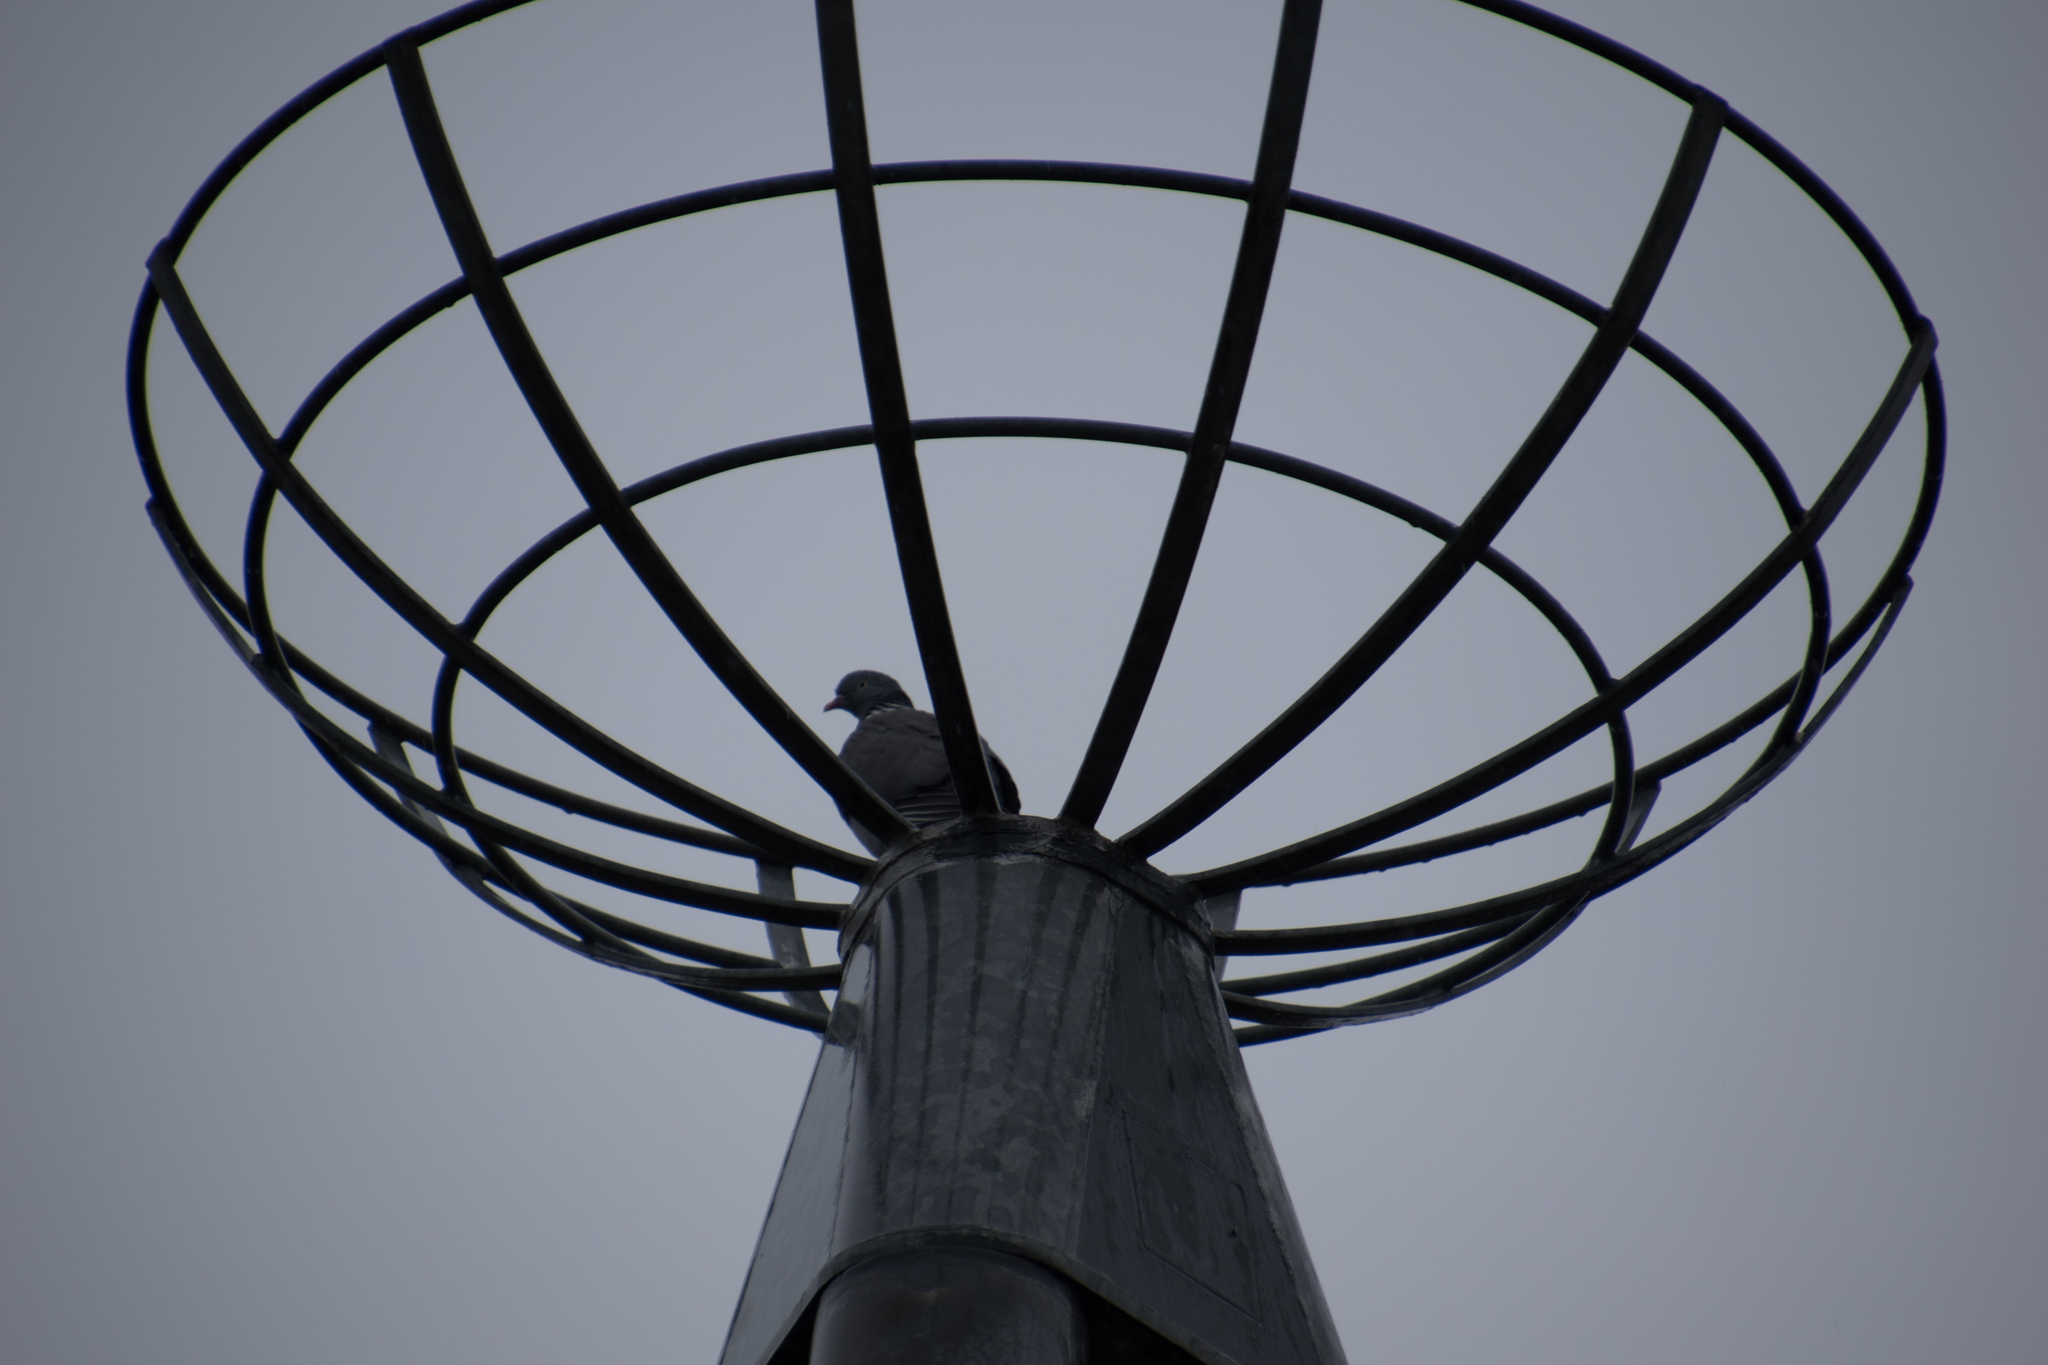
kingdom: Animalia
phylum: Chordata
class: Aves
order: Columbiformes
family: Columbidae
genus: Columba
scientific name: Columba palumbus
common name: Common wood pigeon
